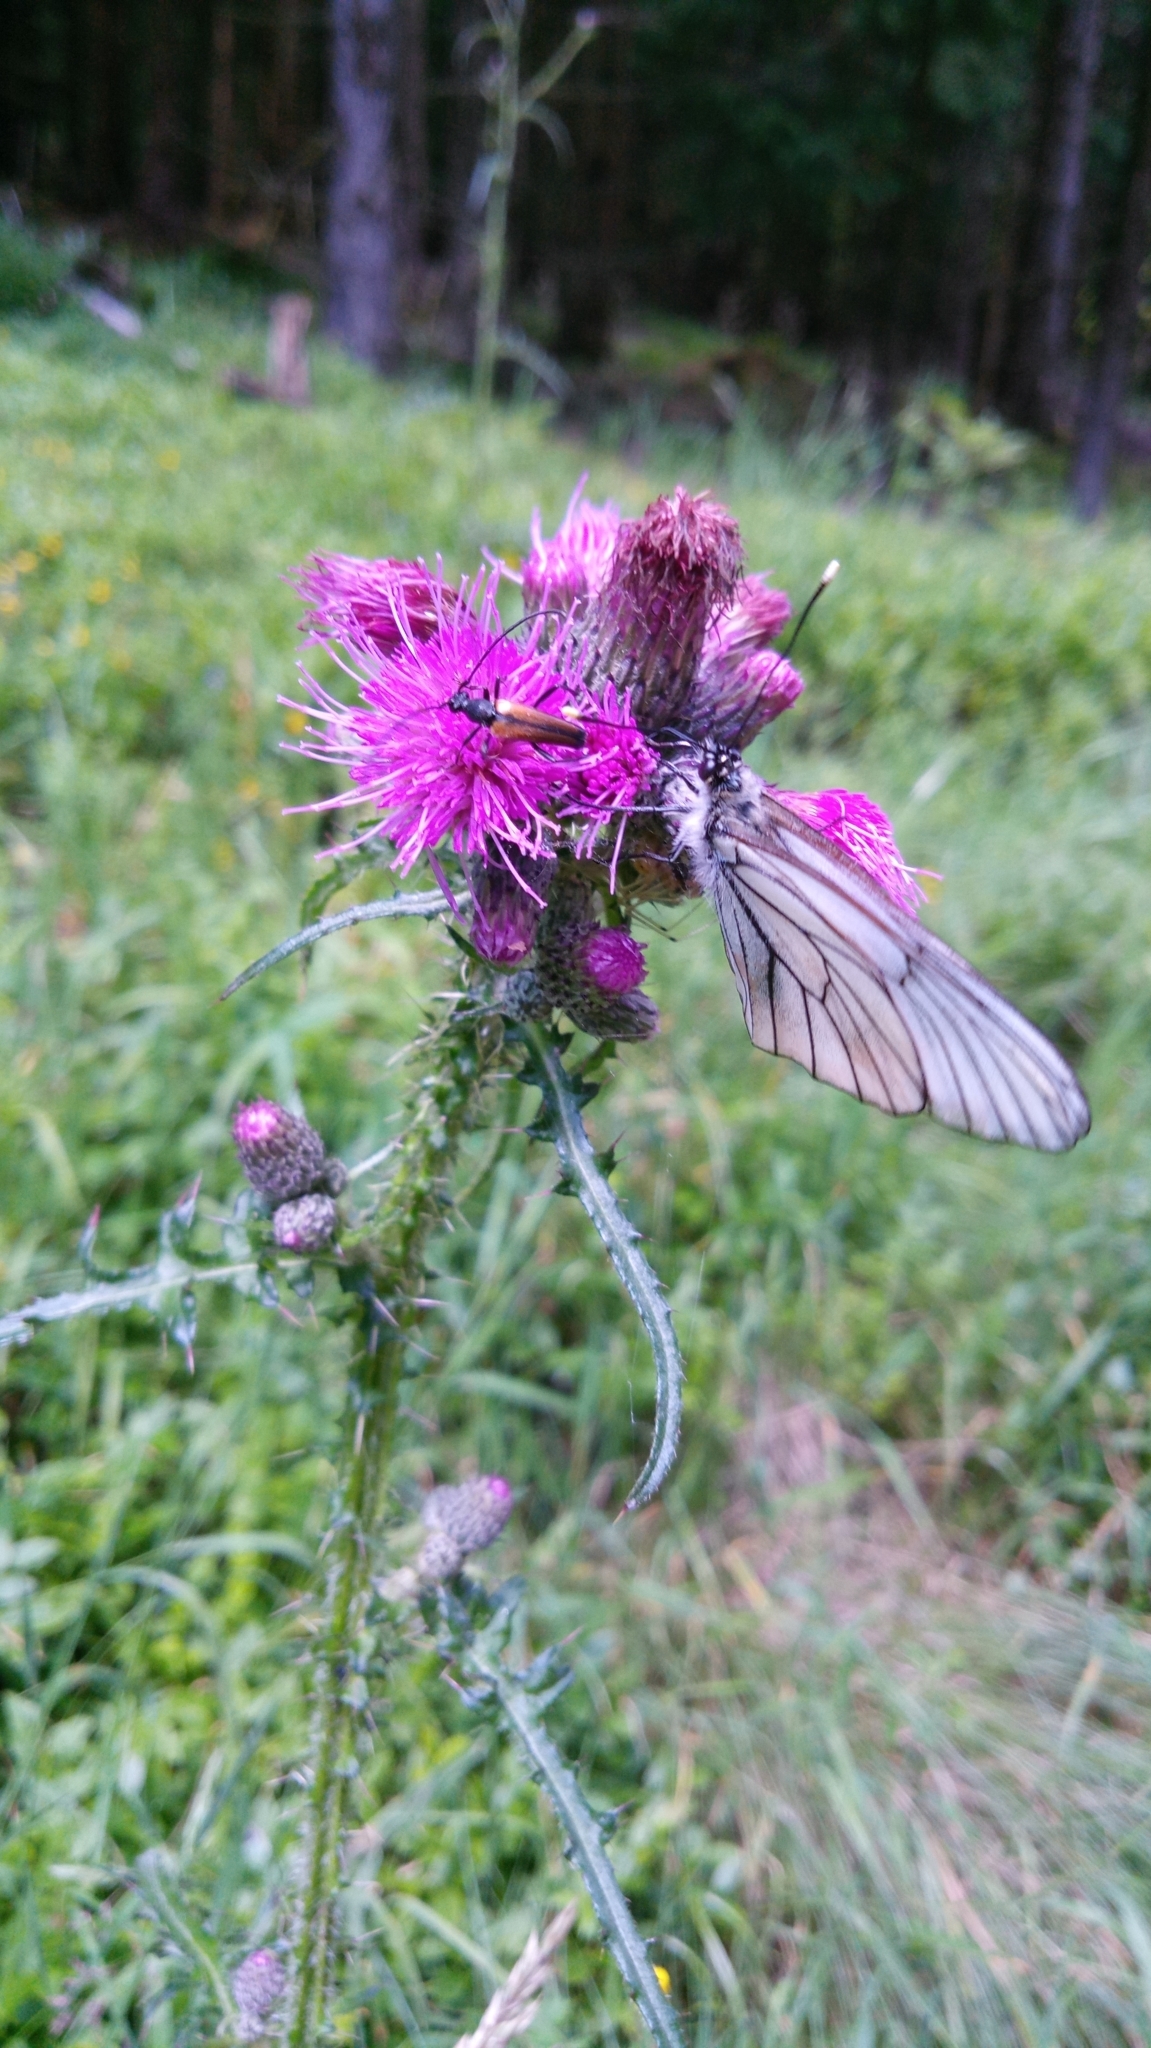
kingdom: Animalia
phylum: Arthropoda
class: Insecta
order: Lepidoptera
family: Pieridae
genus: Aporia
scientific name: Aporia crataegi
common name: Black-veined white
